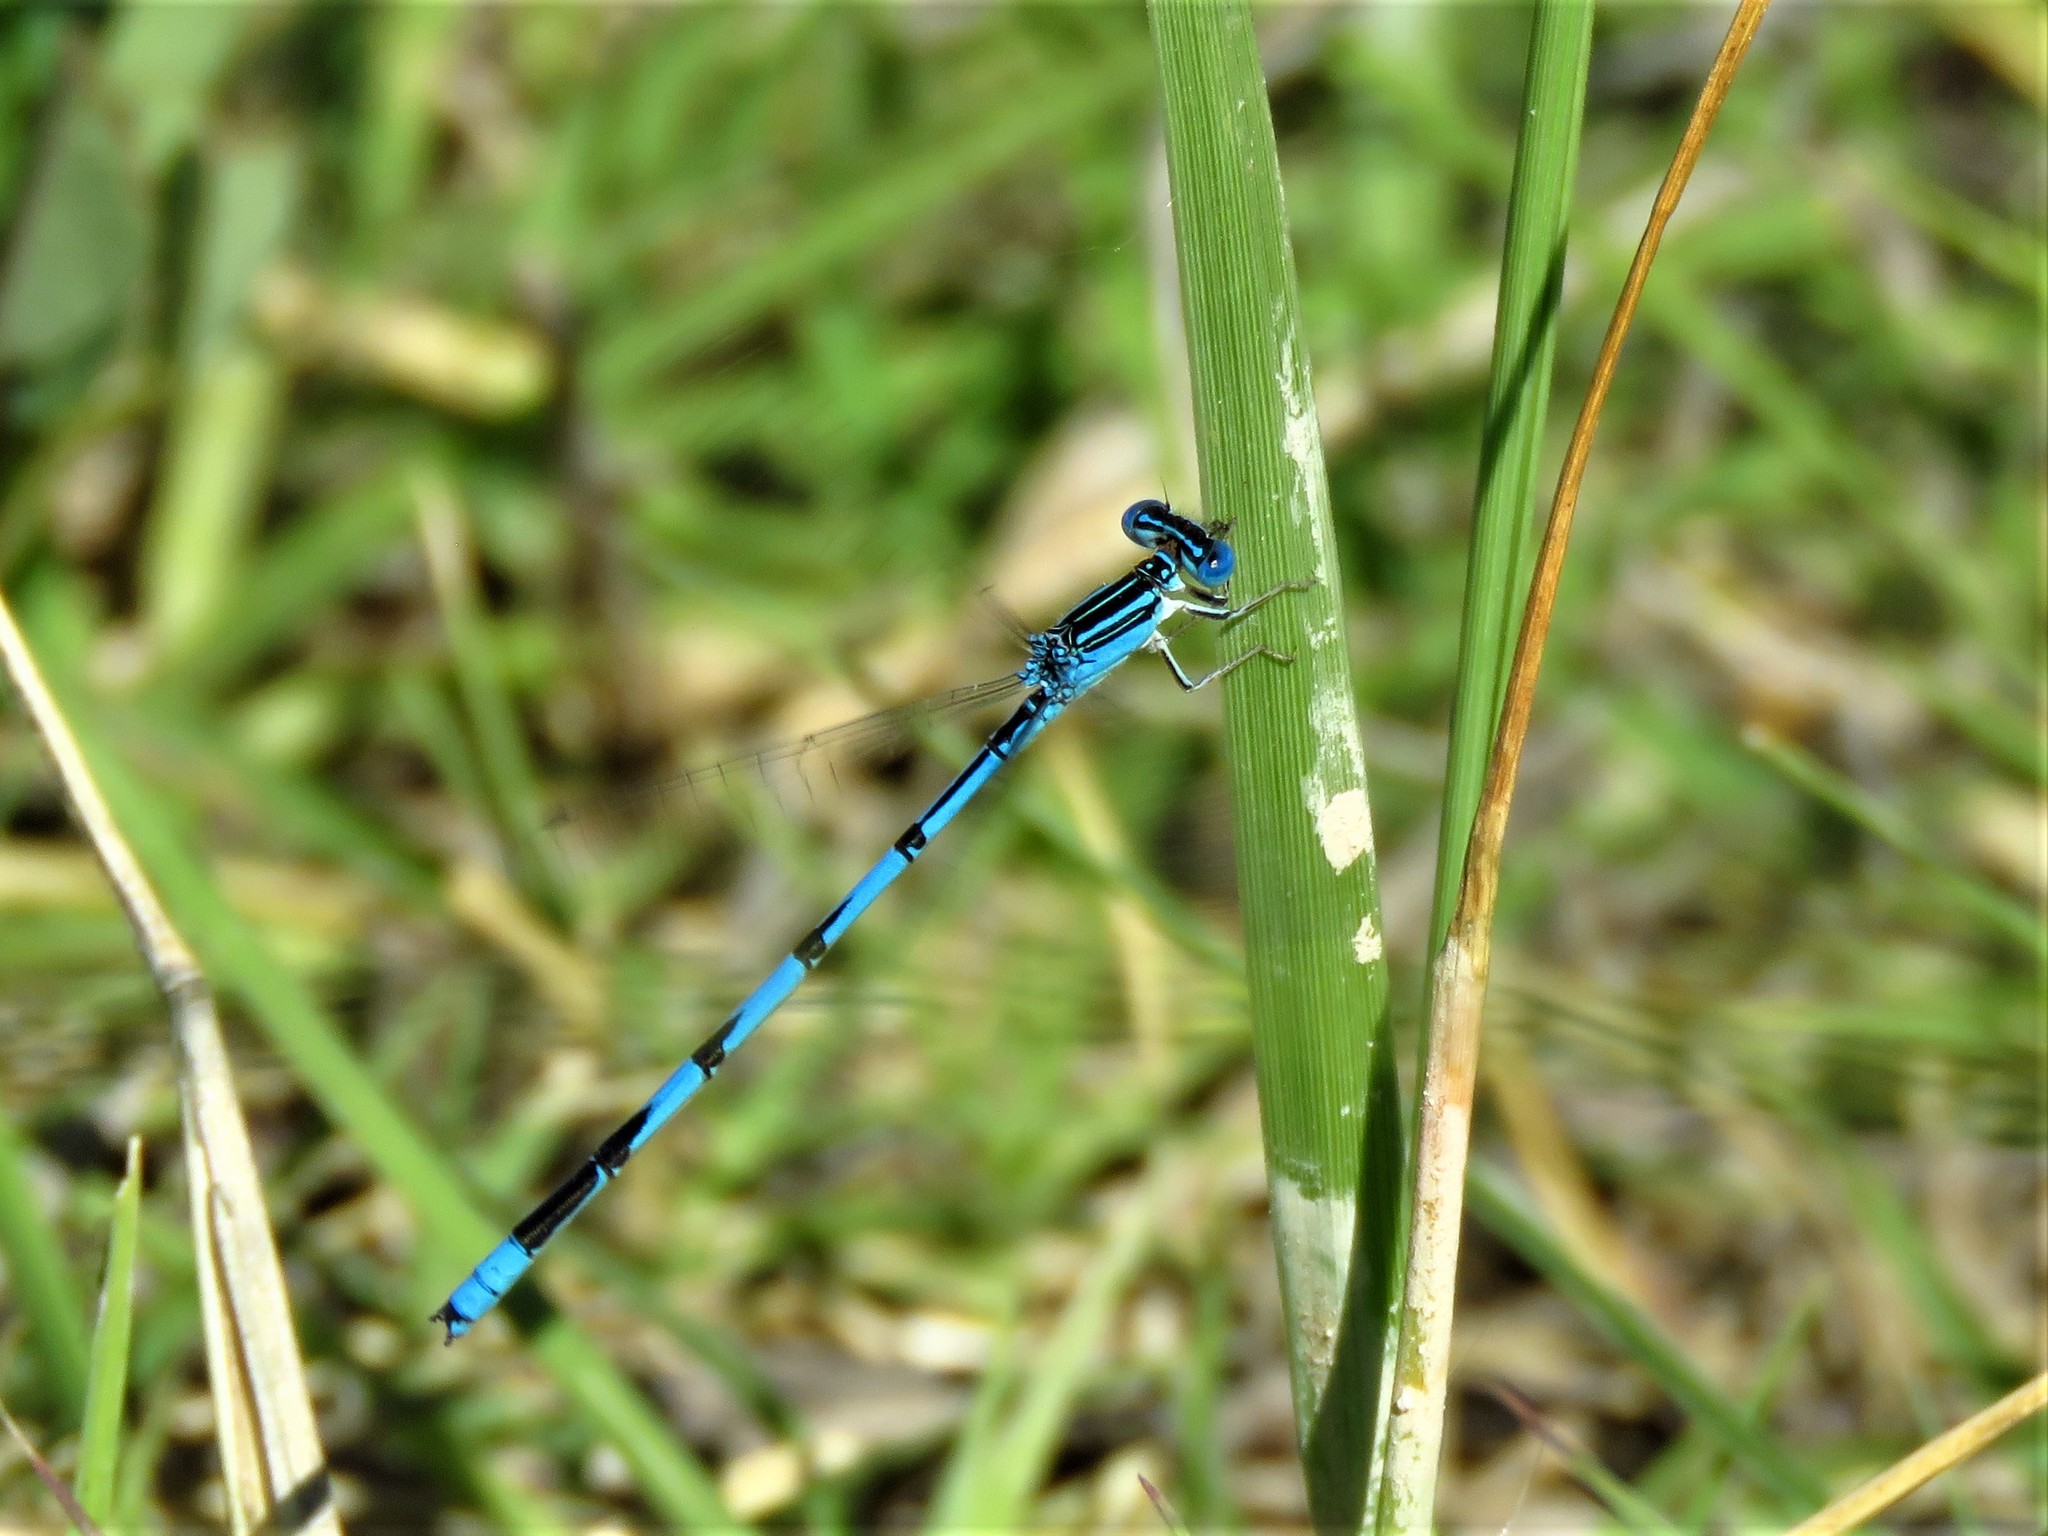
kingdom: Animalia
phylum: Arthropoda
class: Insecta
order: Odonata
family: Coenagrionidae
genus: Enallagma
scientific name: Enallagma basidens
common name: Double-striped bluet
